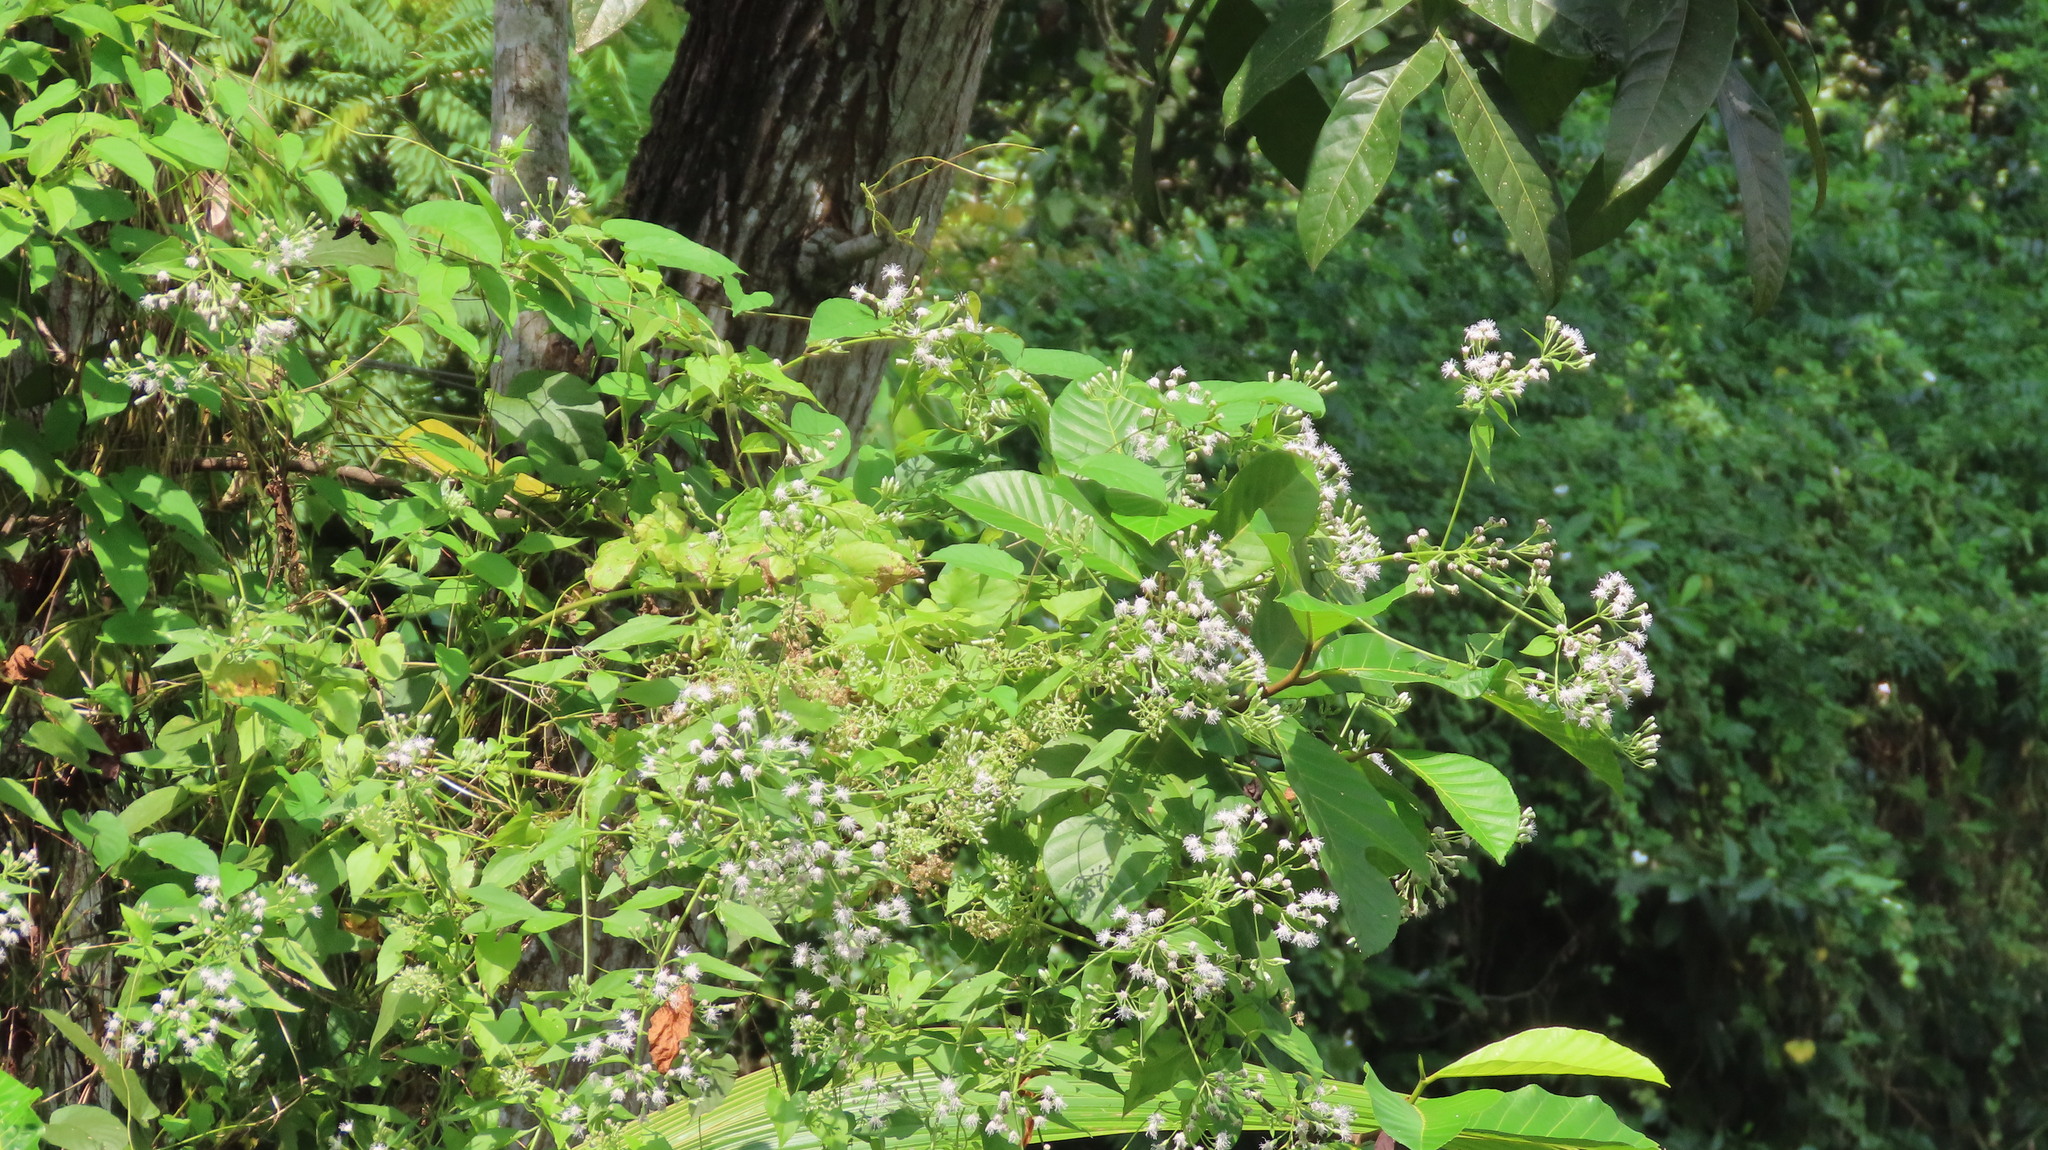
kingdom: Plantae
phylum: Tracheophyta
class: Magnoliopsida
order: Asterales
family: Asteraceae
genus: Chromolaena
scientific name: Chromolaena odorata
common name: Siamweed
